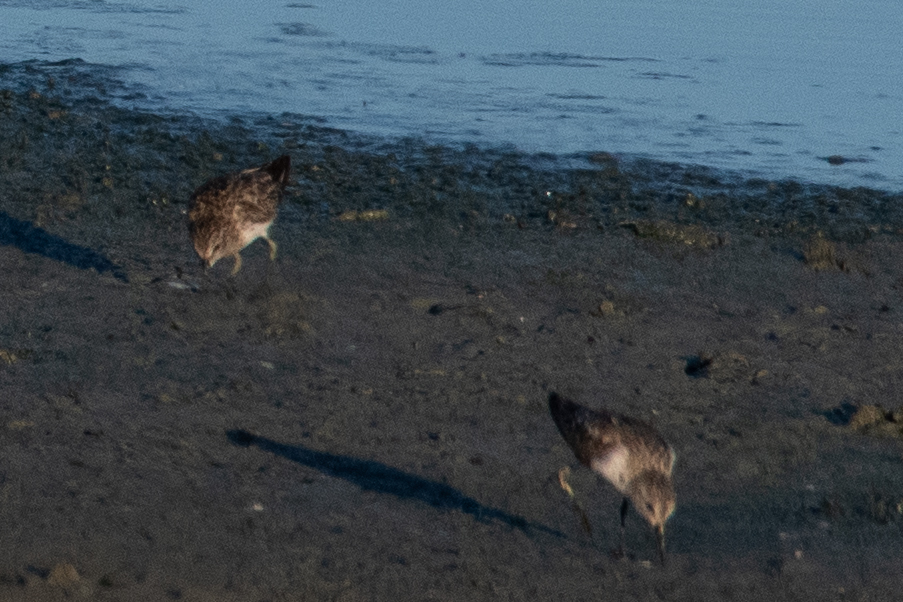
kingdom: Animalia
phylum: Chordata
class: Aves
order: Charadriiformes
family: Scolopacidae
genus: Calidris
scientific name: Calidris minutilla
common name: Least sandpiper
